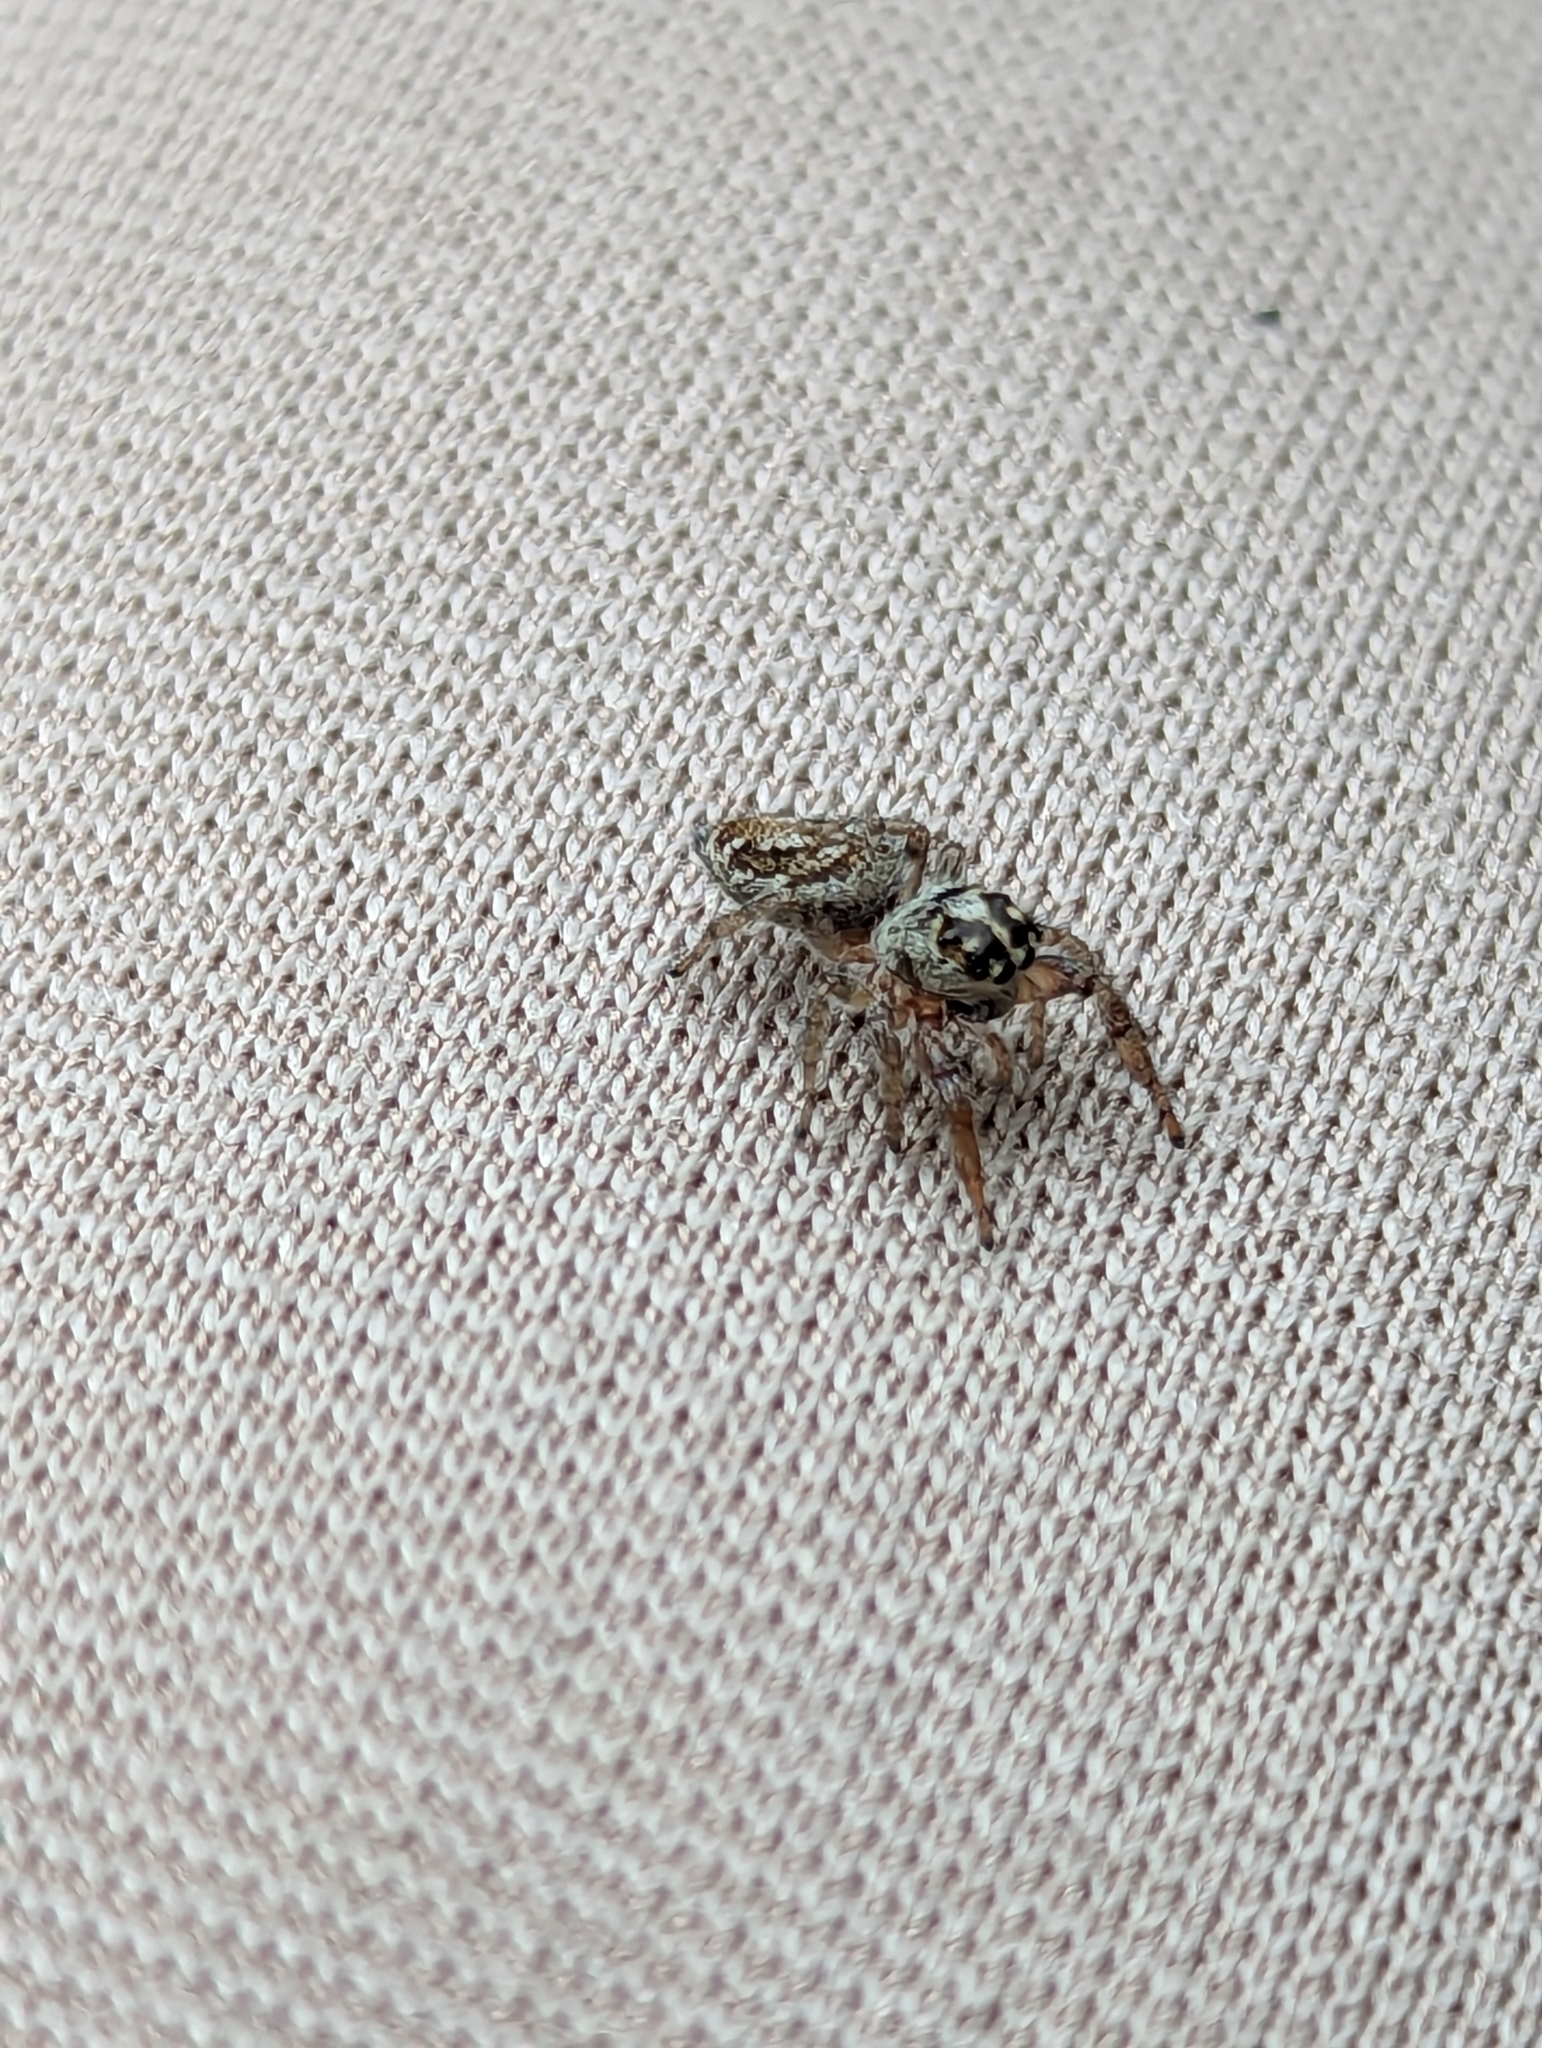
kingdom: Animalia
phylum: Arthropoda
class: Arachnida
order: Araneae
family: Salticidae
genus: Macaroeris
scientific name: Macaroeris nidicolens
